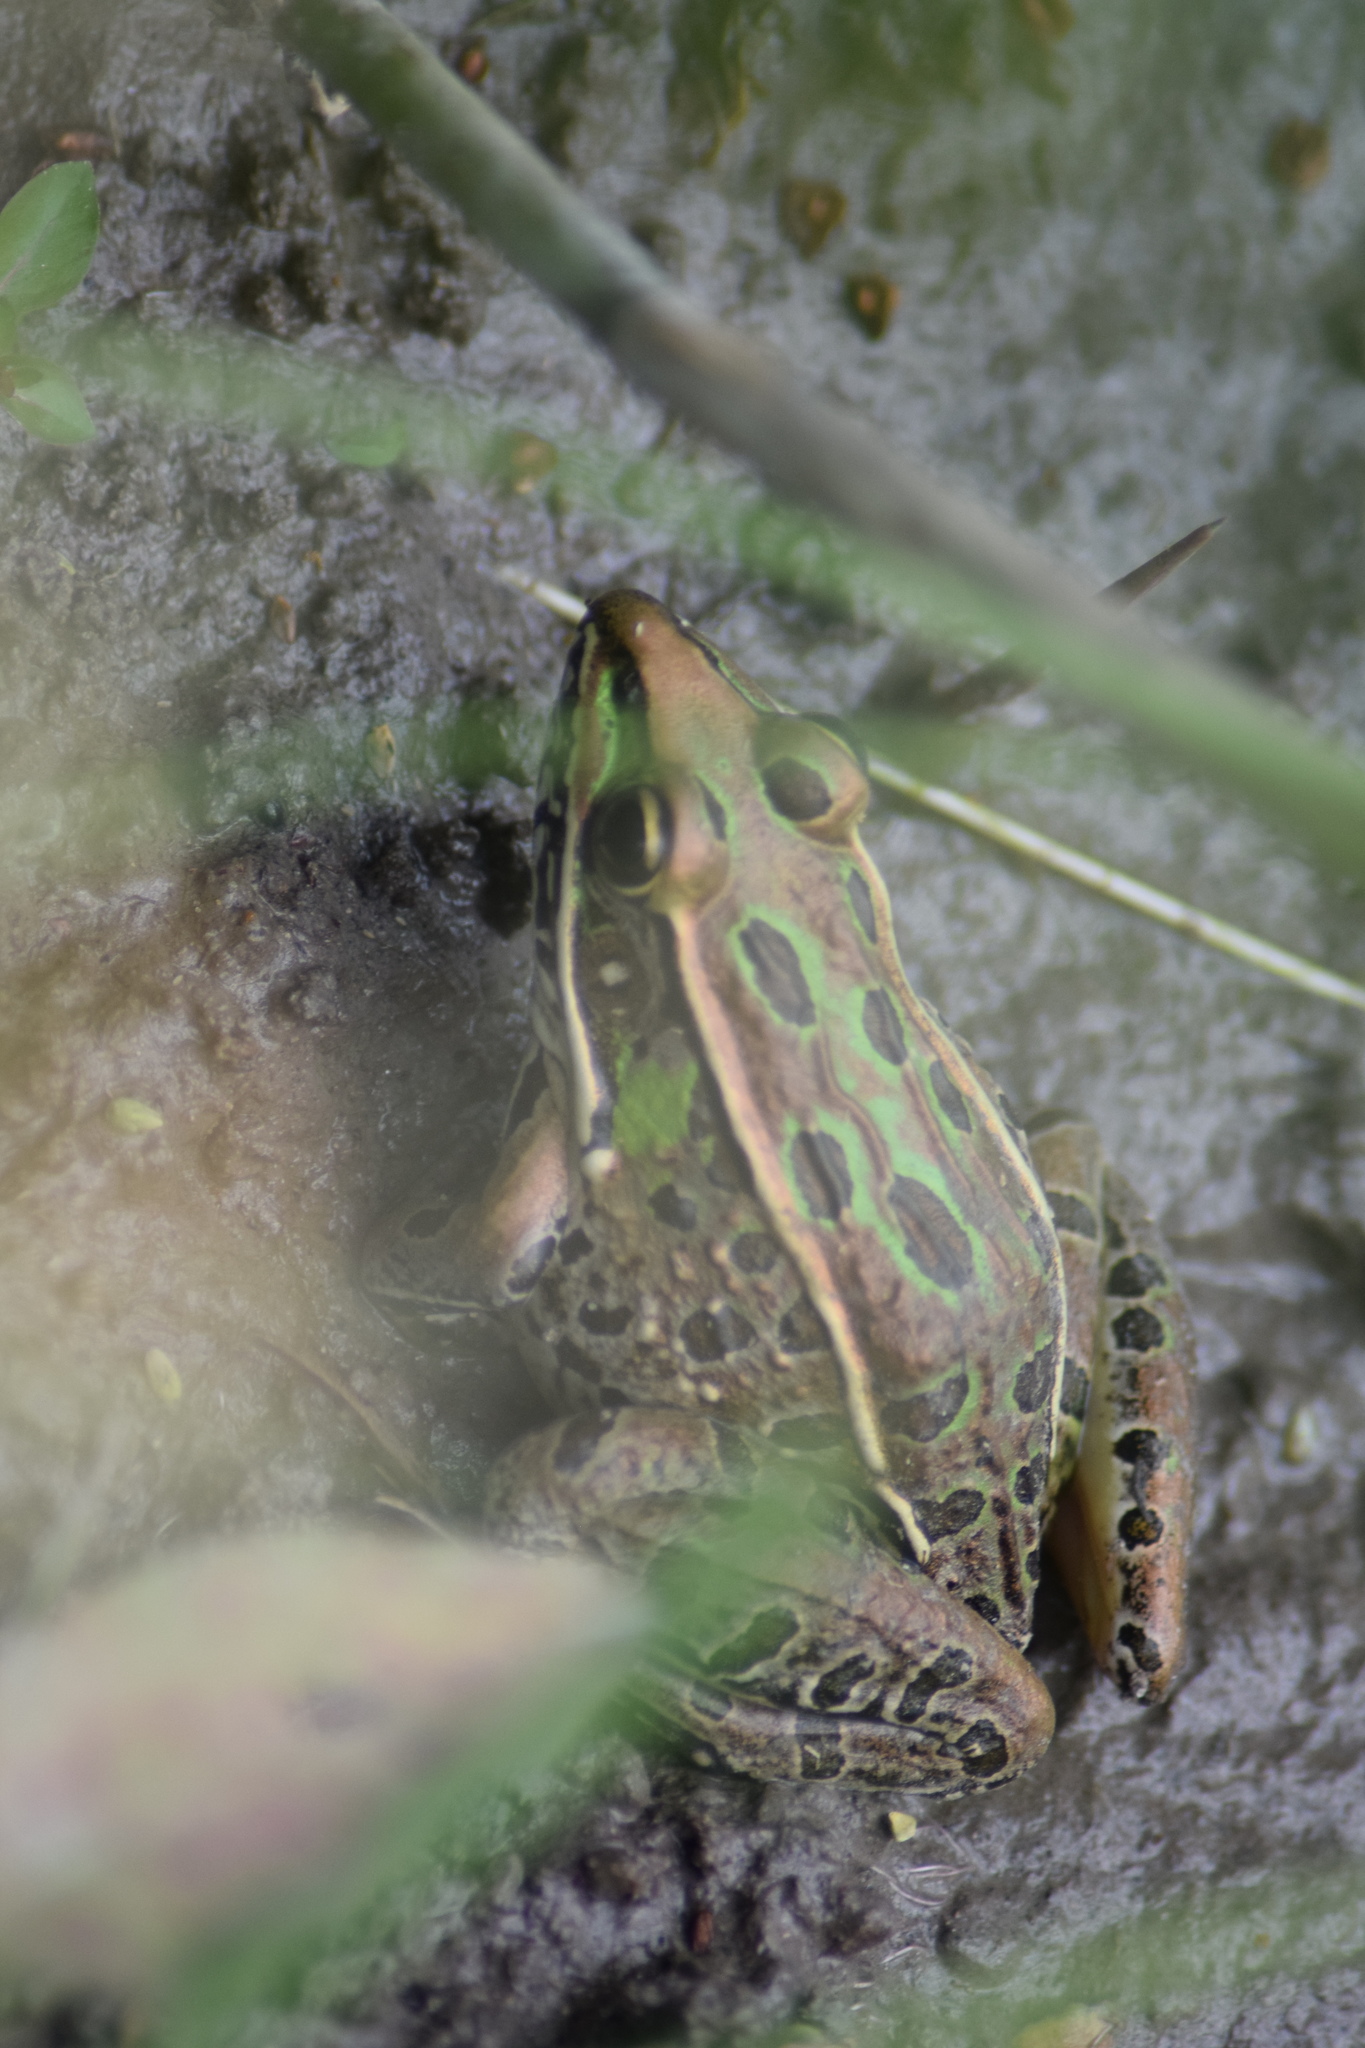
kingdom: Animalia
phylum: Chordata
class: Amphibia
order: Anura
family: Ranidae
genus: Lithobates
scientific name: Lithobates sphenocephalus
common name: Southern leopard frog
